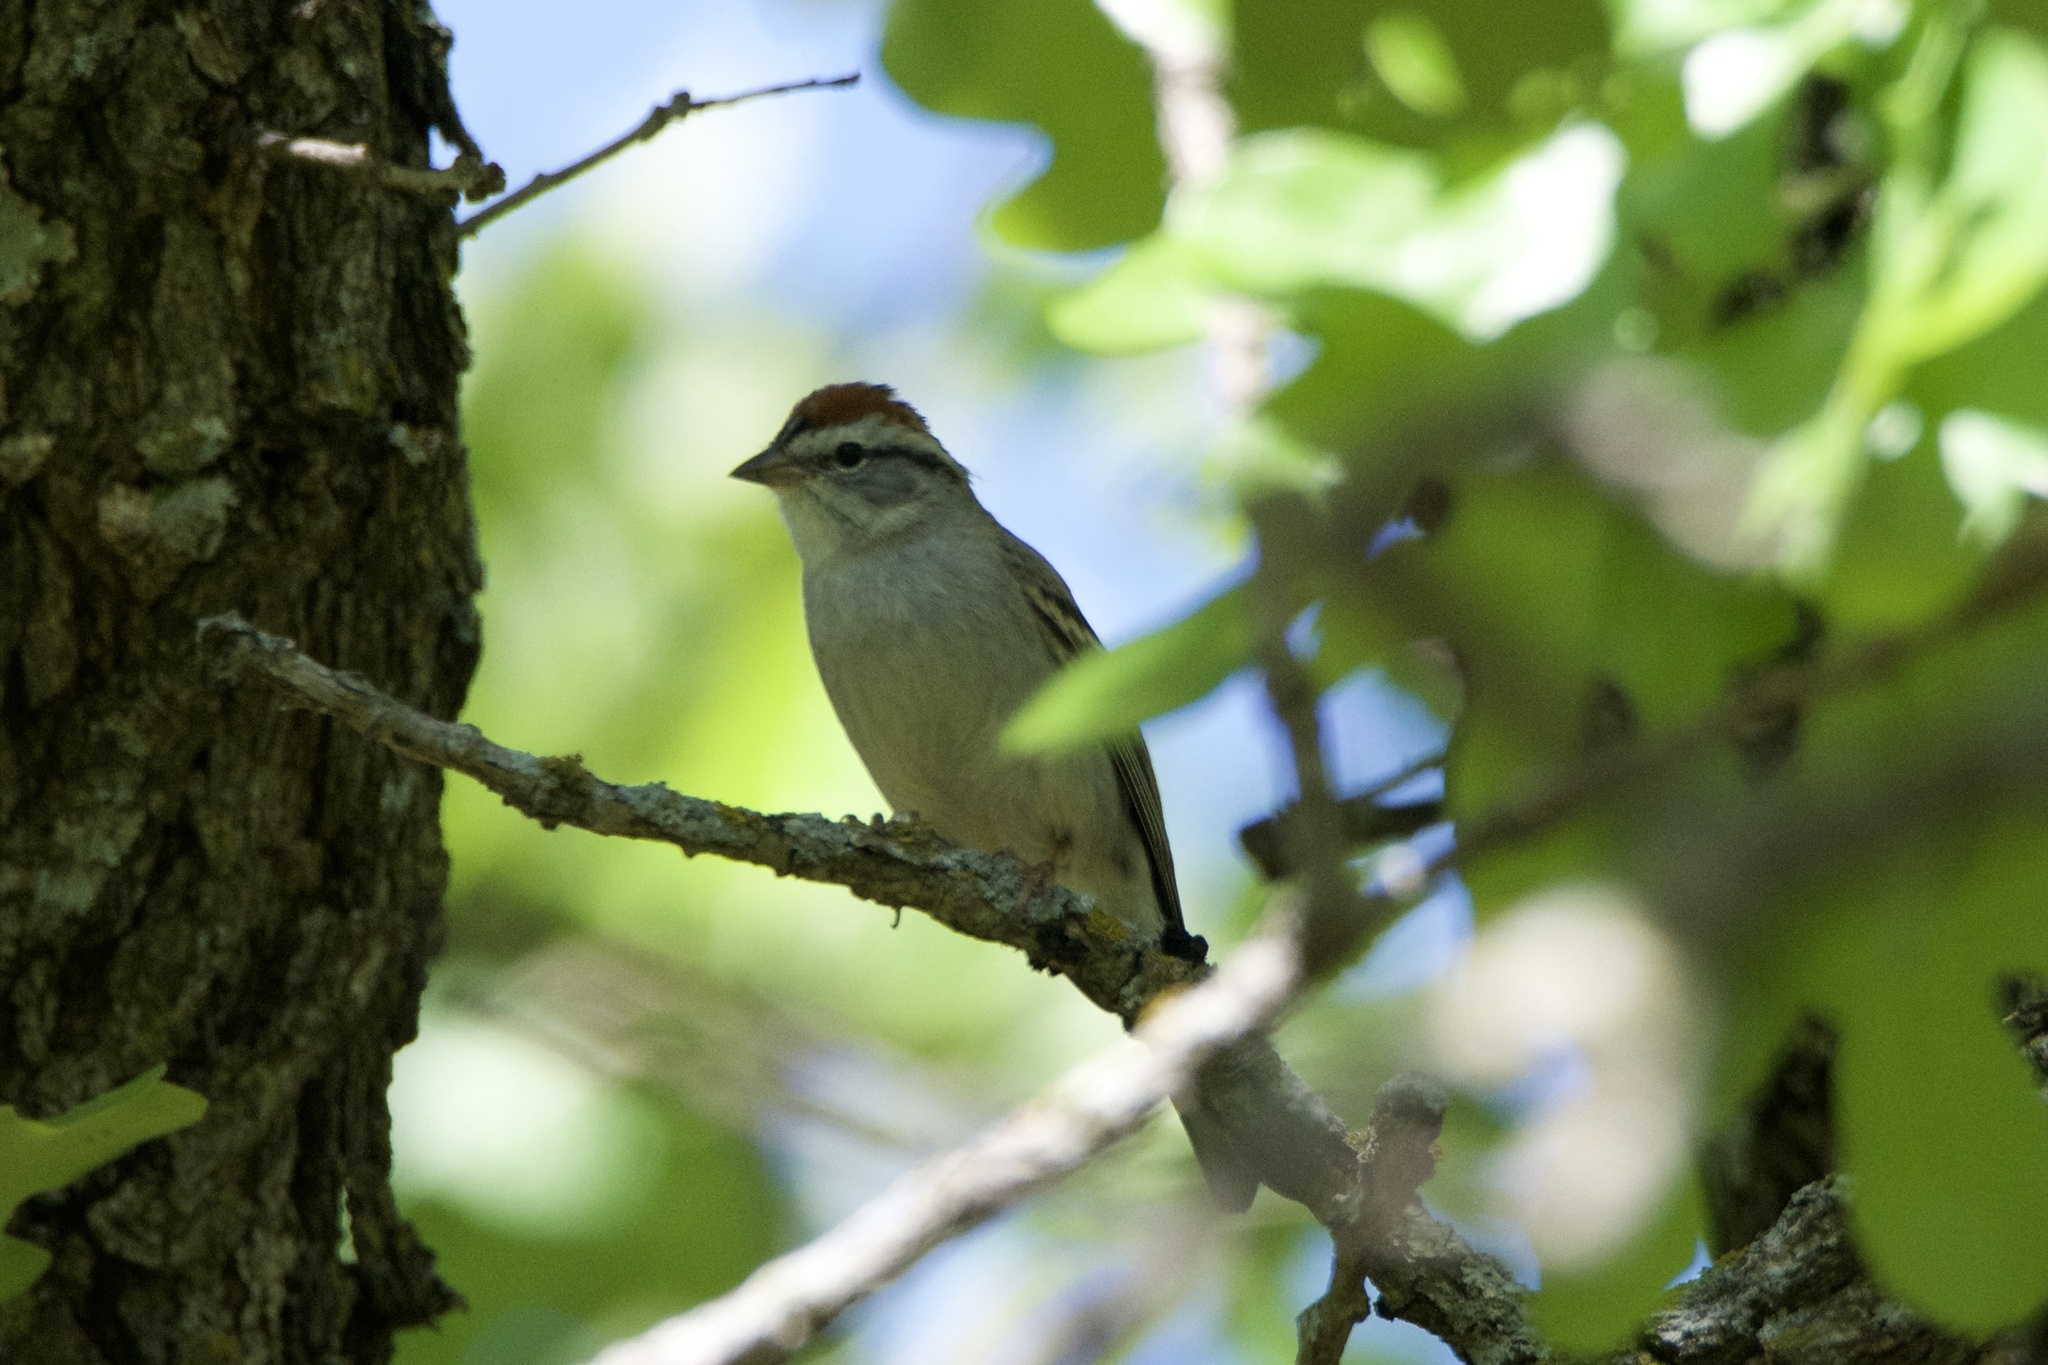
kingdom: Animalia
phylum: Chordata
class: Aves
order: Passeriformes
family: Passerellidae
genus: Spizella
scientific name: Spizella passerina
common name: Chipping sparrow
